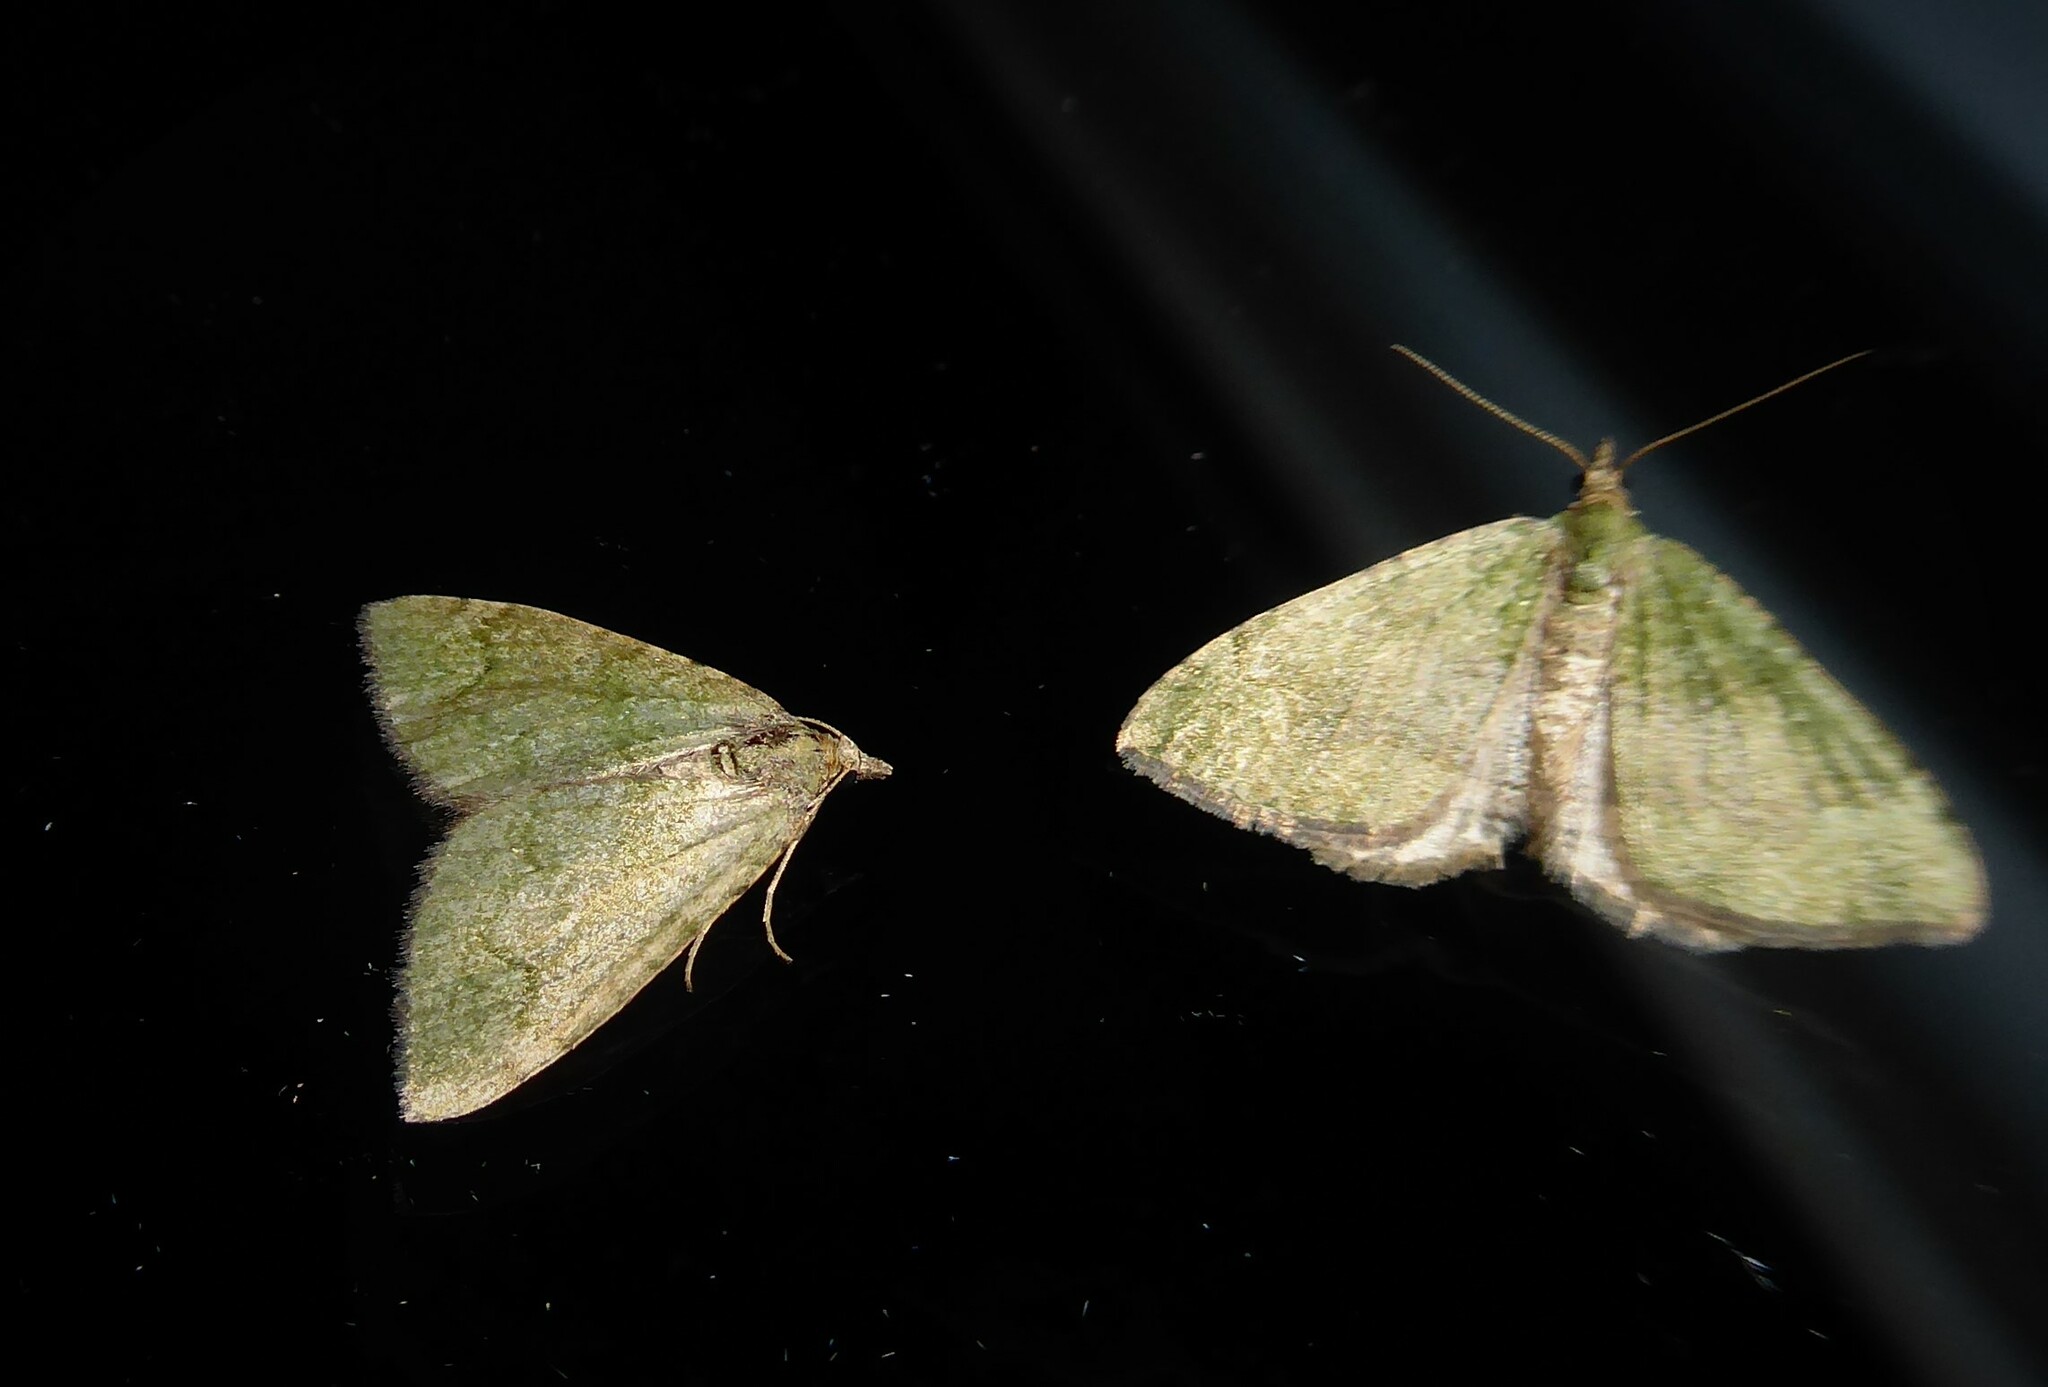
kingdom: Animalia
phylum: Arthropoda
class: Insecta
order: Lepidoptera
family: Geometridae
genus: Epyaxa
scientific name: Epyaxa rosearia
